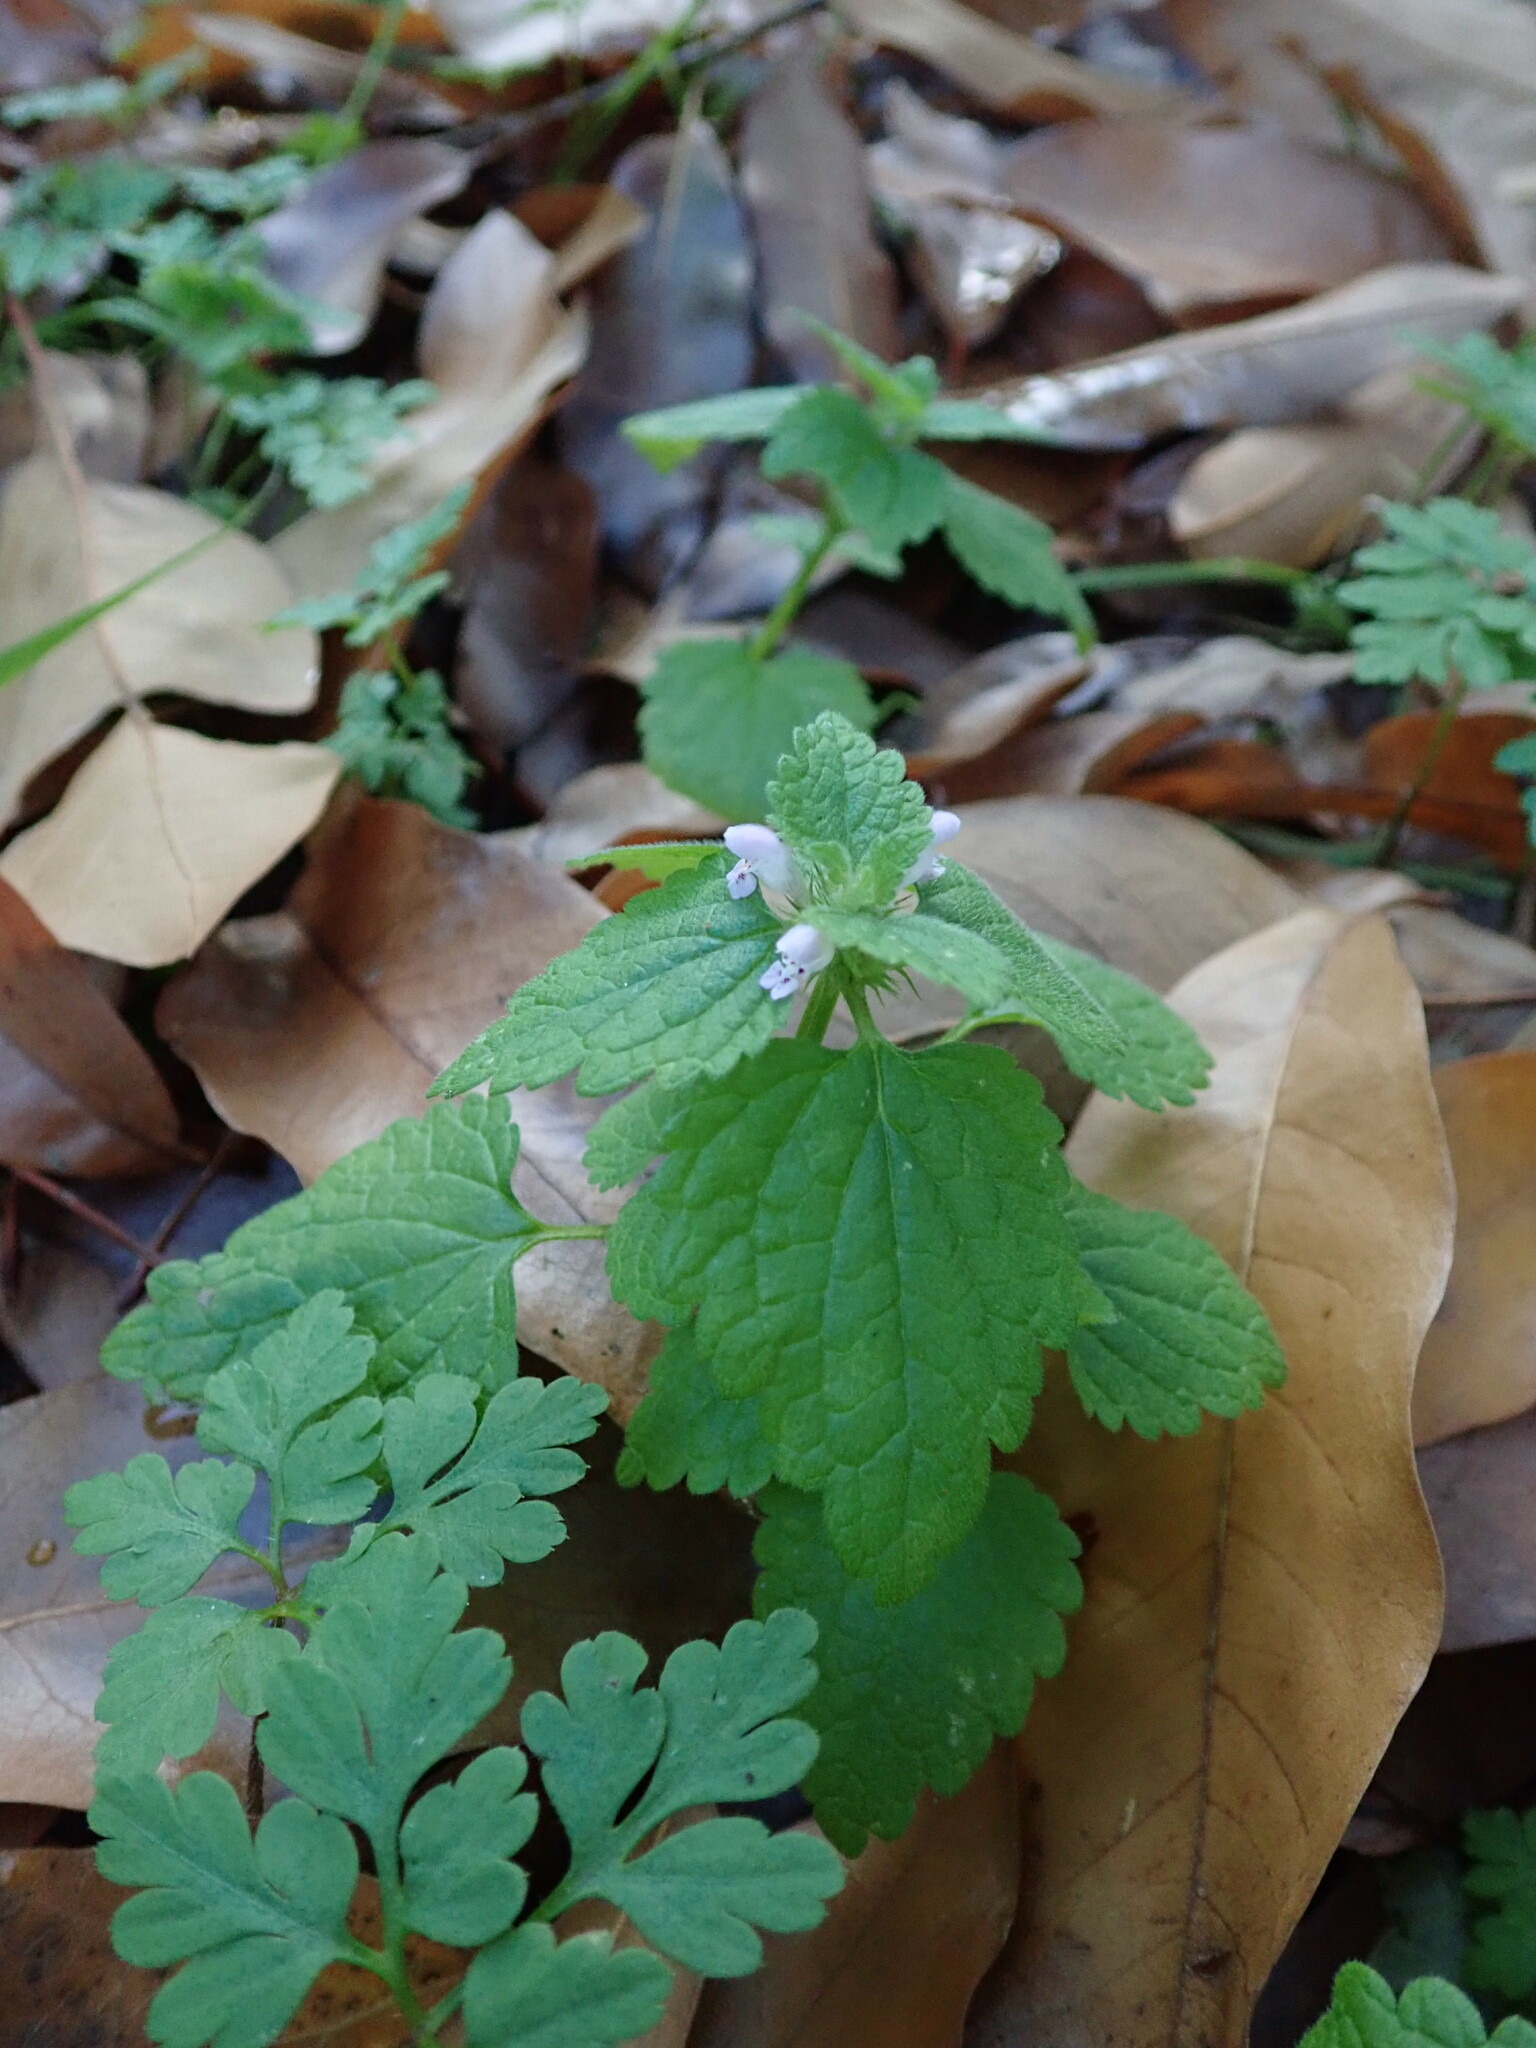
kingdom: Plantae
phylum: Tracheophyta
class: Magnoliopsida
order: Lamiales
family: Lamiaceae
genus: Lamium
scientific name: Lamium purpureum
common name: Red dead-nettle
